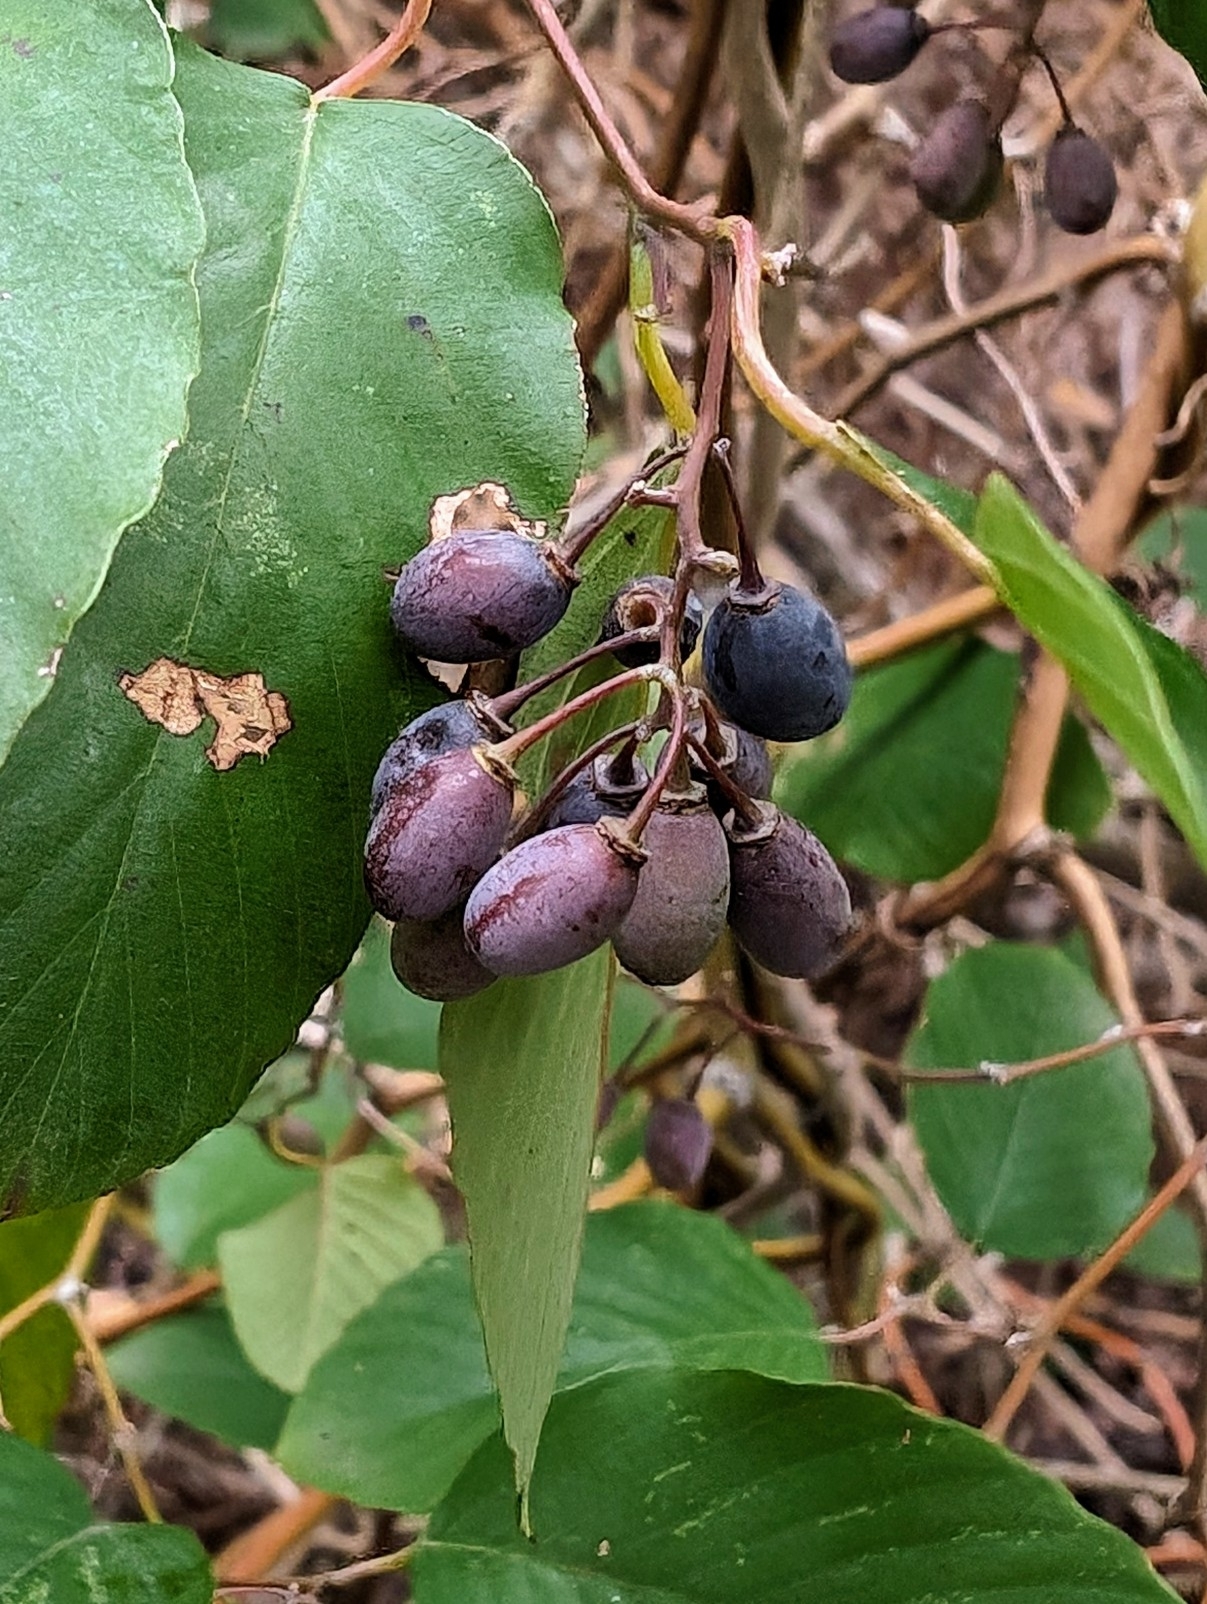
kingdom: Plantae
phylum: Tracheophyta
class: Magnoliopsida
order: Rosales
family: Rhamnaceae
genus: Berchemia
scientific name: Berchemia scandens
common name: Supplejack
